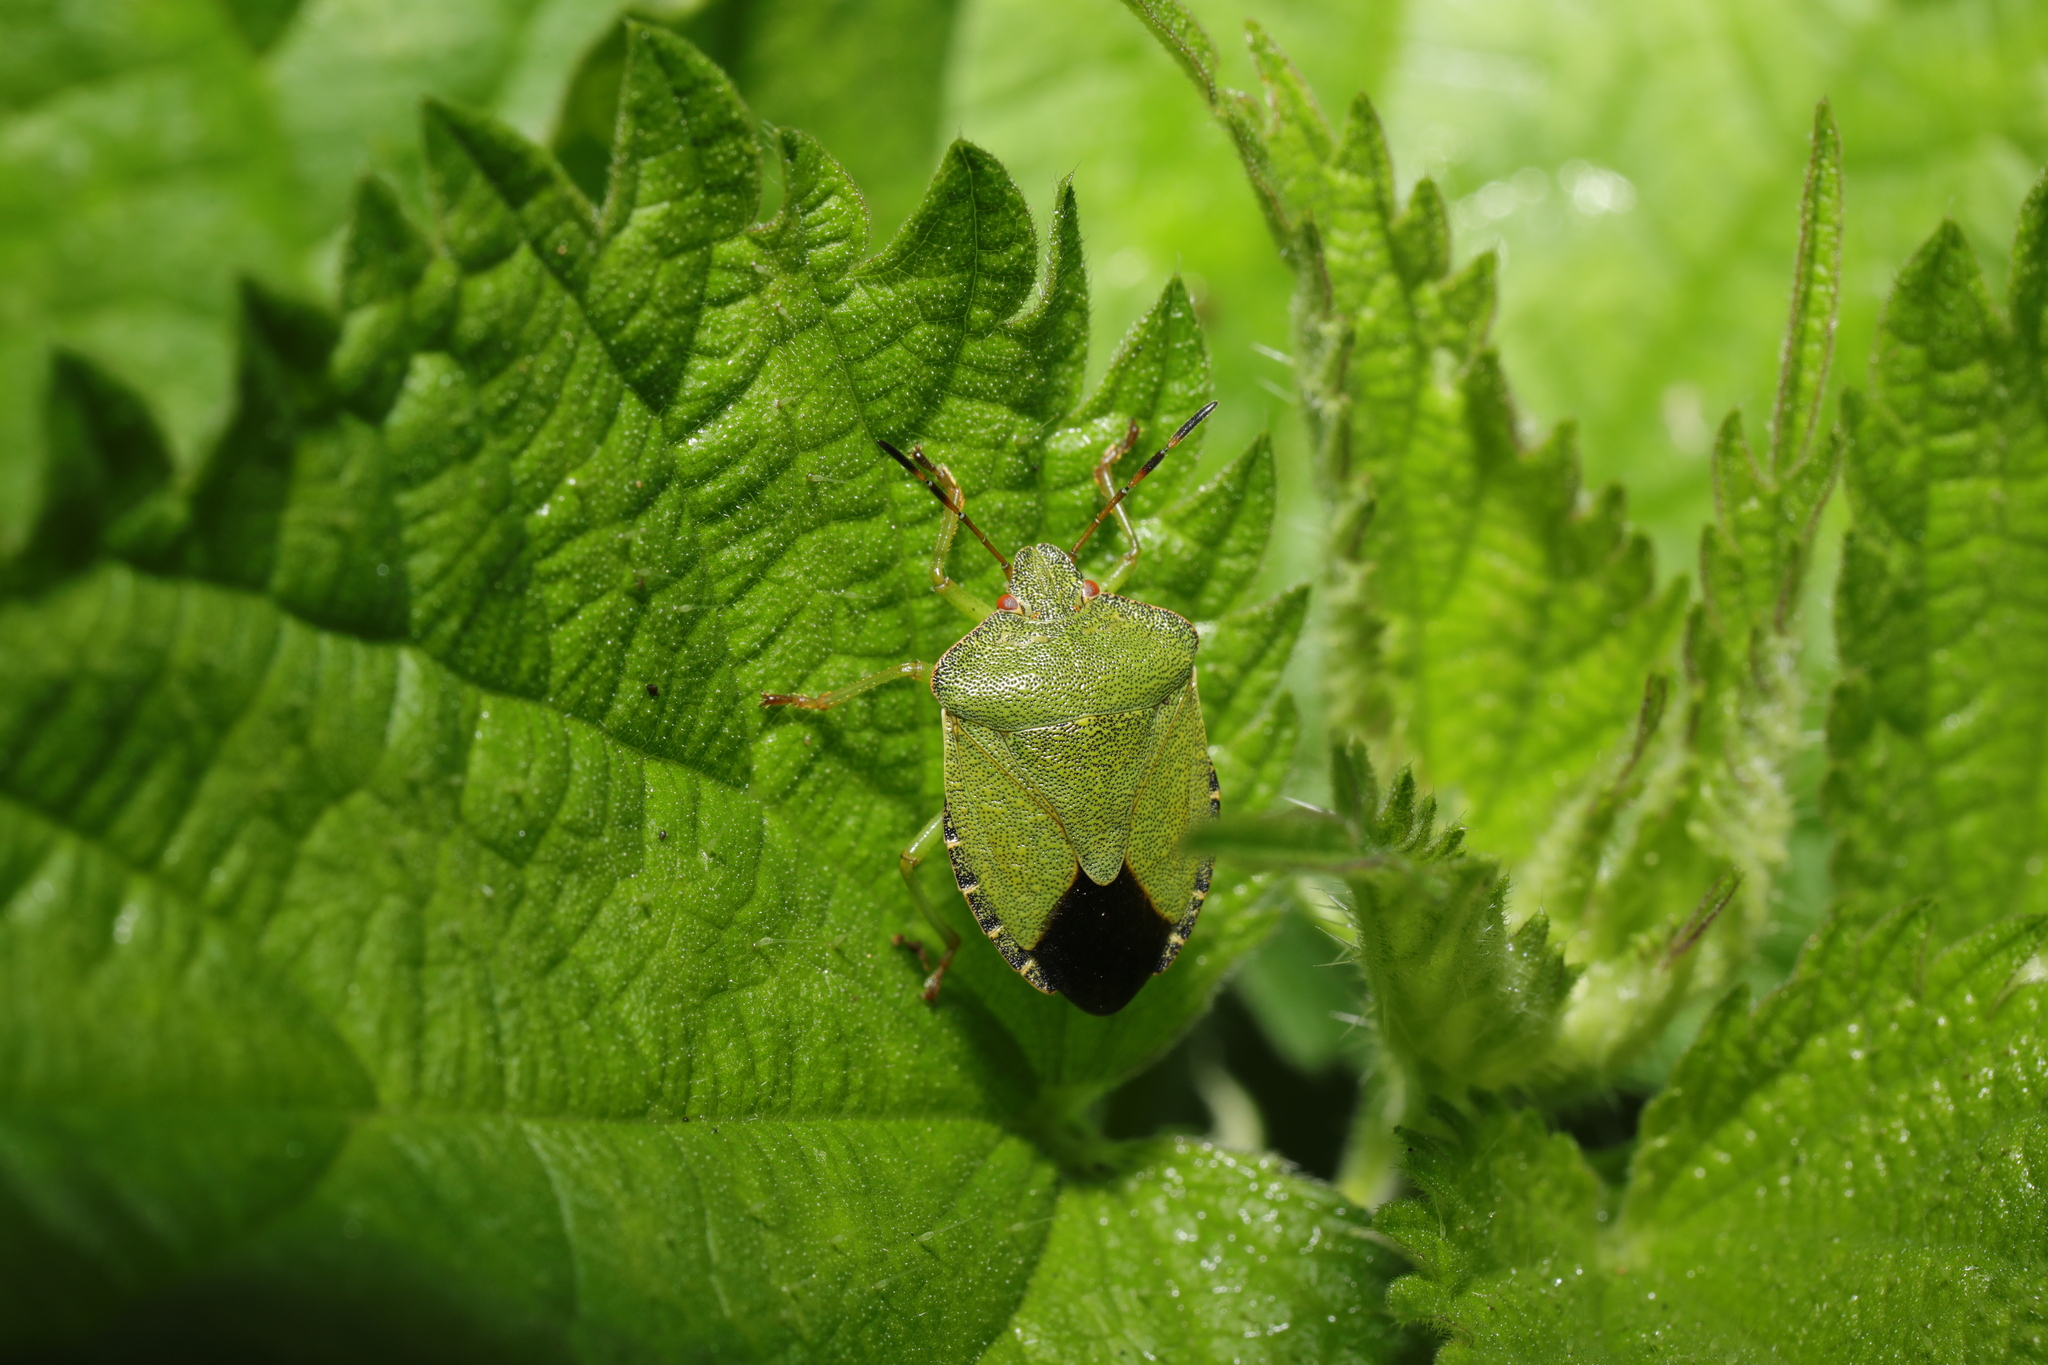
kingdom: Animalia
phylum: Arthropoda
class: Insecta
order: Hemiptera
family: Pentatomidae
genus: Palomena
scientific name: Palomena prasina
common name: Green shieldbug
